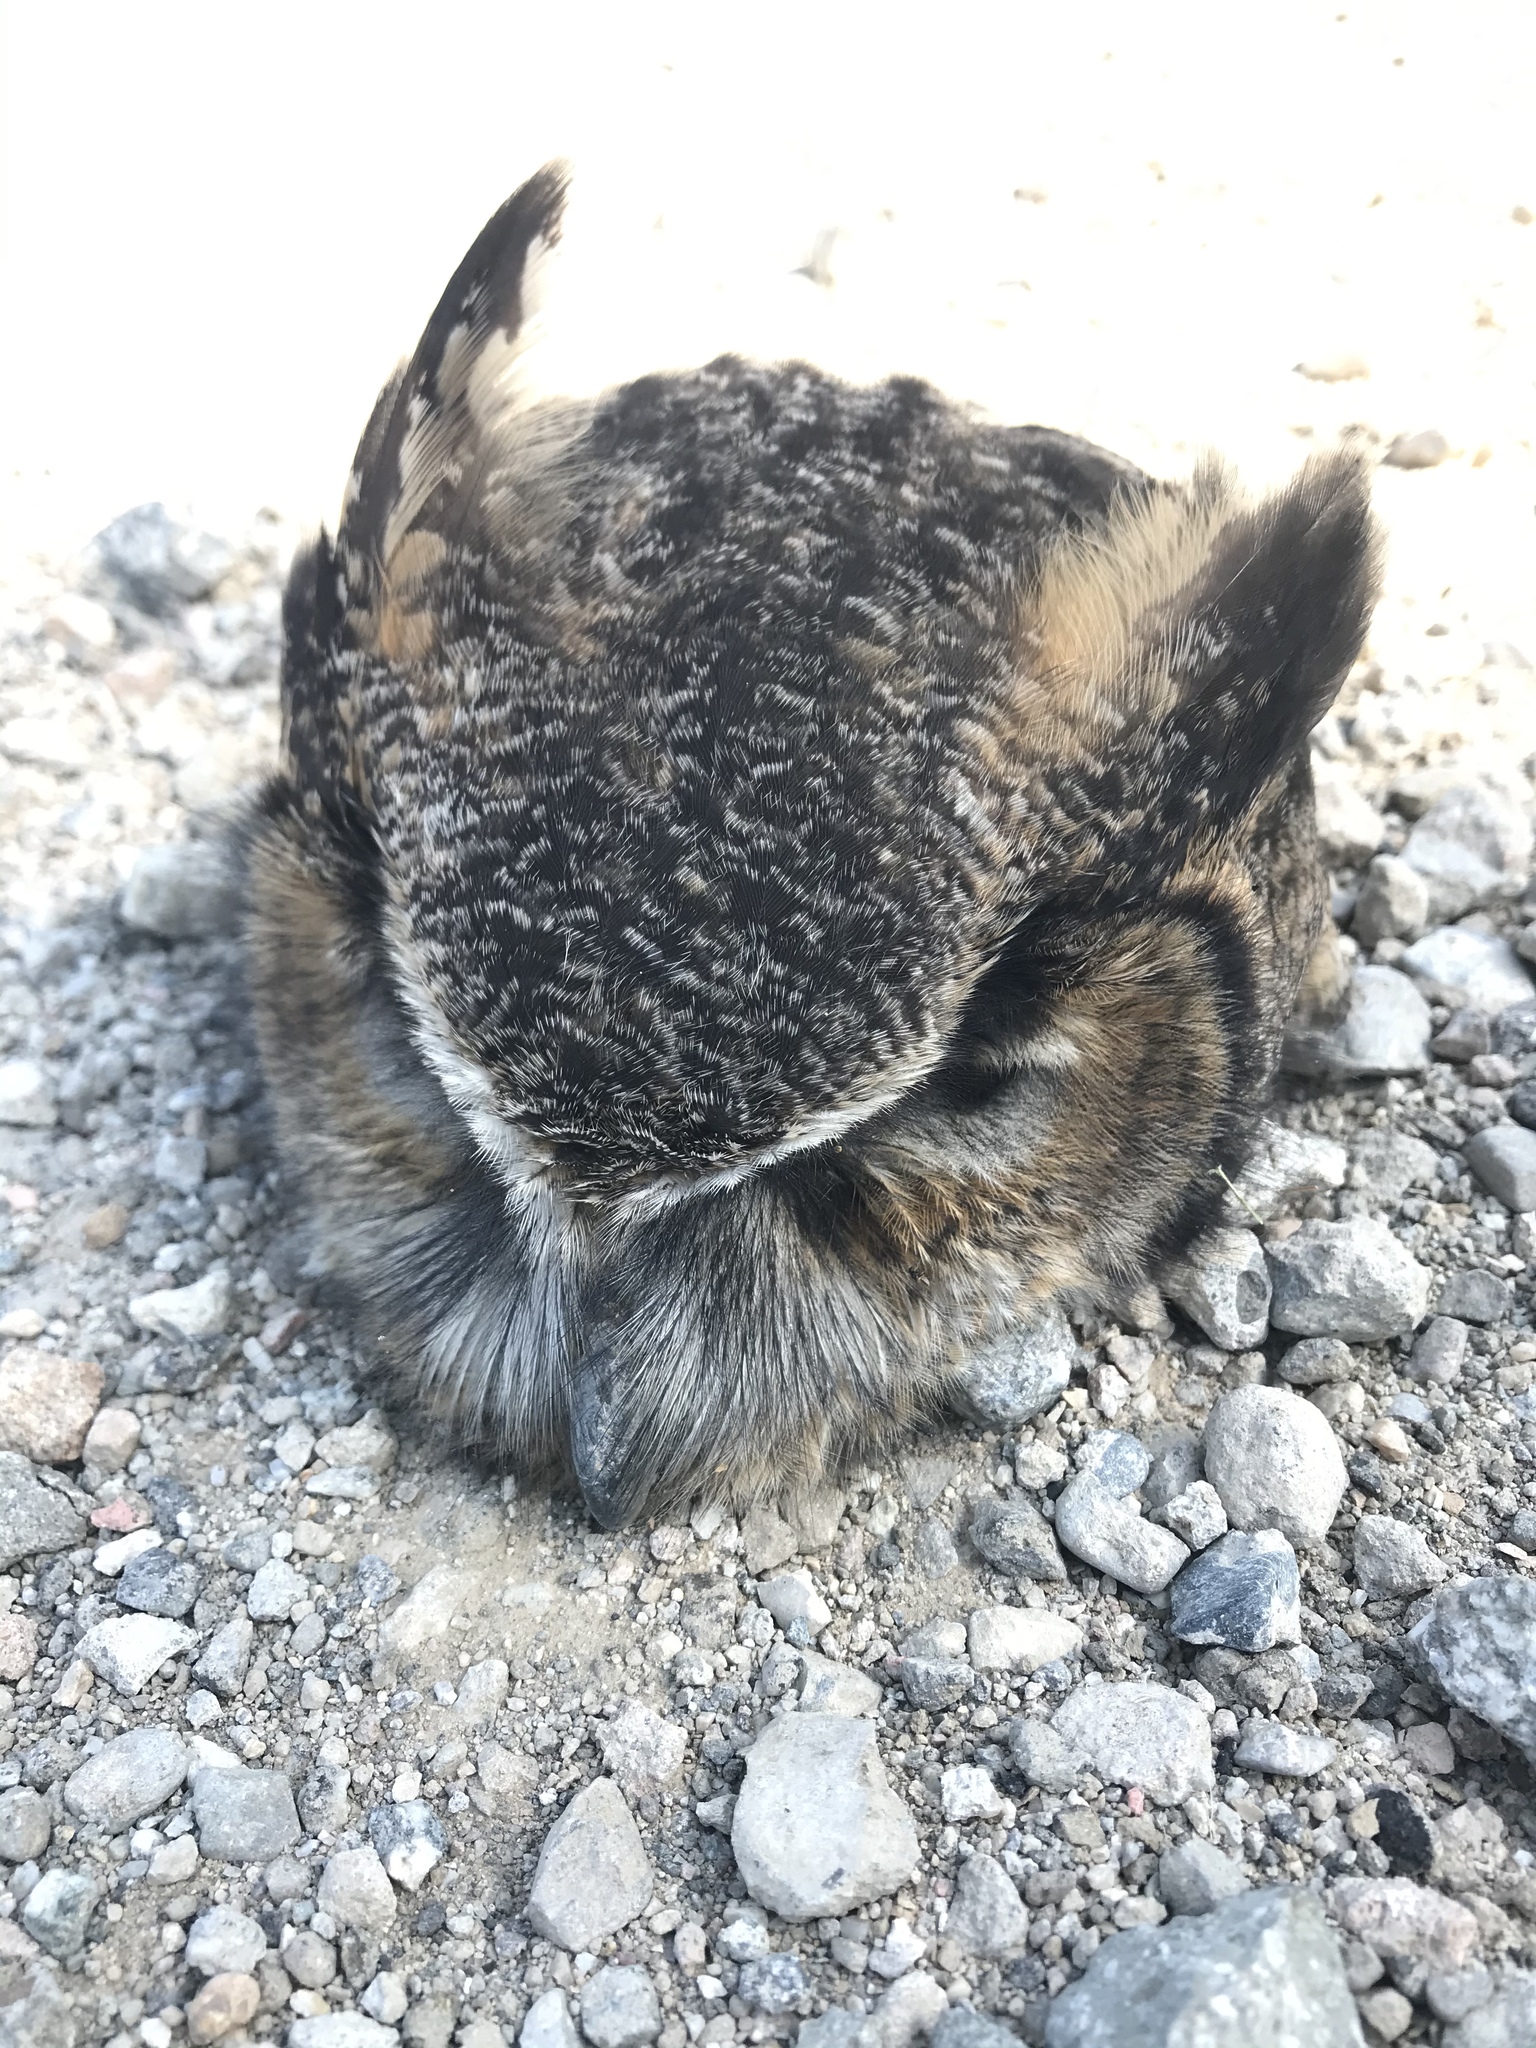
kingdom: Animalia
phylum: Chordata
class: Aves
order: Strigiformes
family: Strigidae
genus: Bubo
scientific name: Bubo virginianus
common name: Great horned owl
